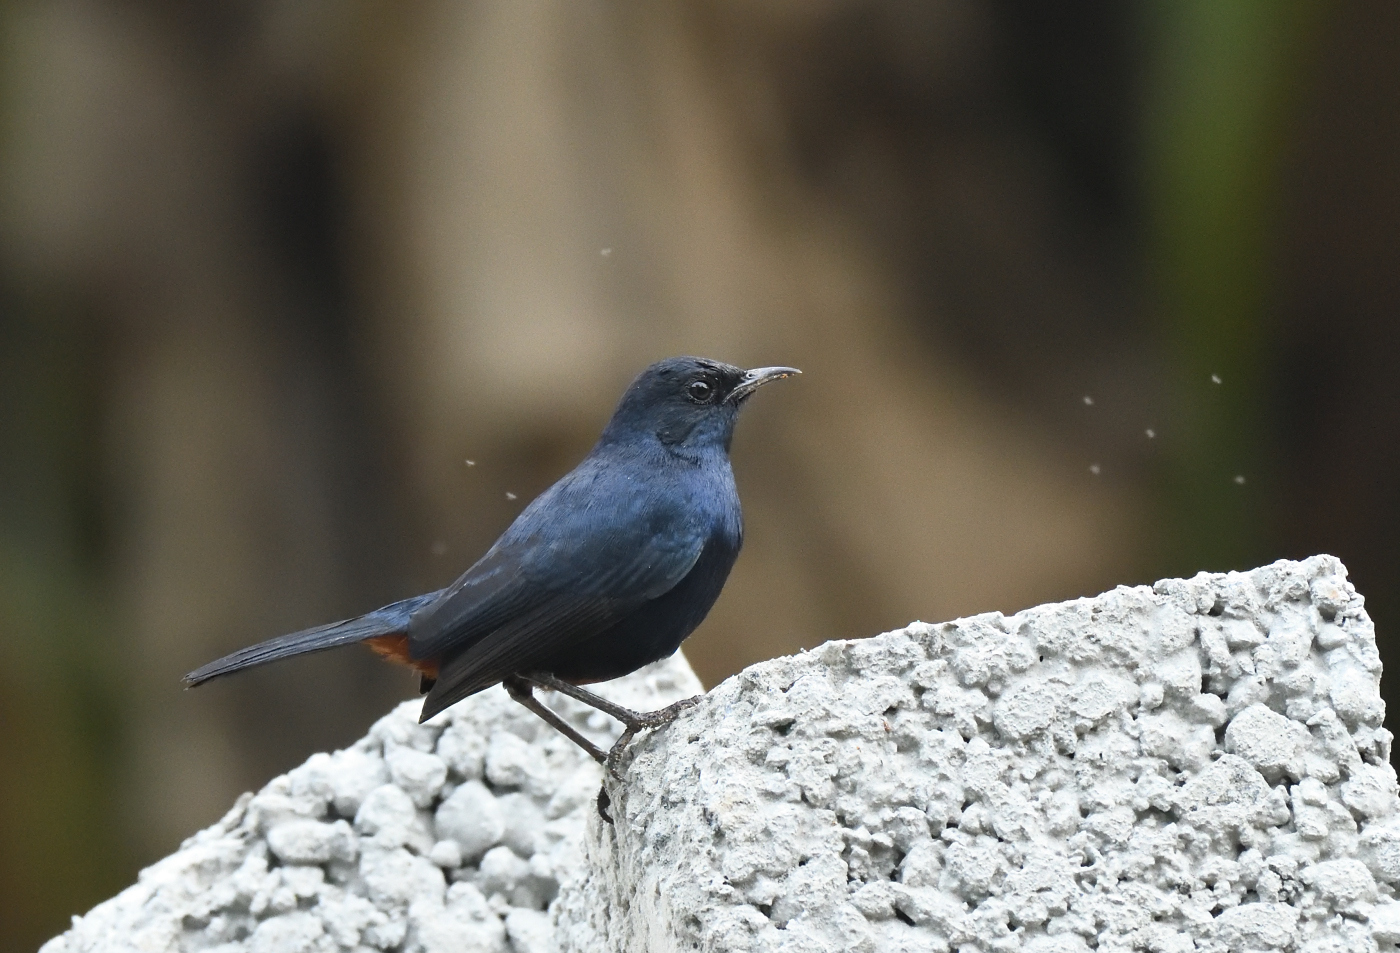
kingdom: Animalia
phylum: Chordata
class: Aves
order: Passeriformes
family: Muscicapidae
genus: Saxicoloides
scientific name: Saxicoloides fulicatus
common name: Indian robin
